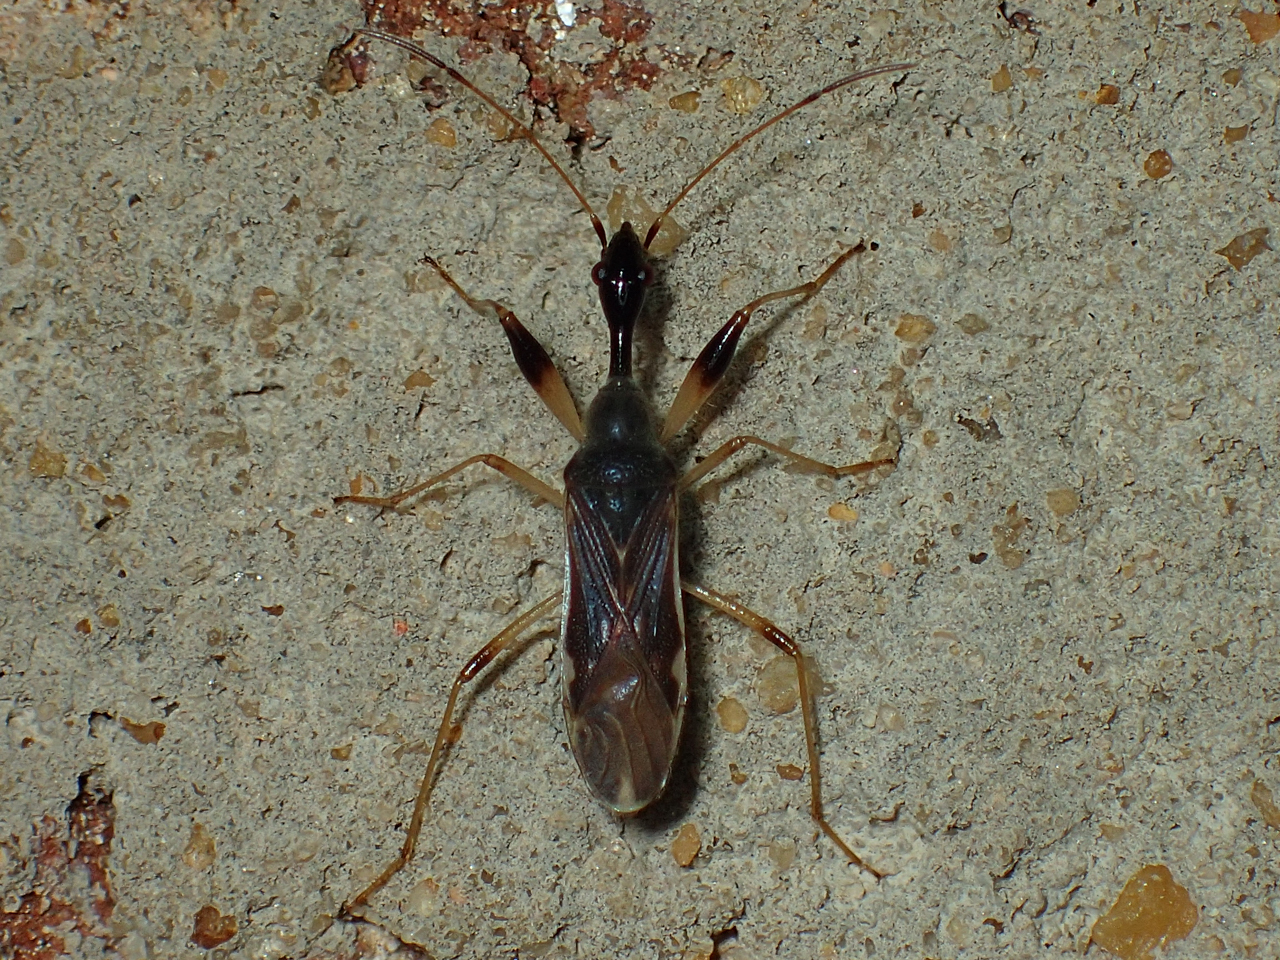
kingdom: Animalia
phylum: Arthropoda
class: Insecta
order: Hemiptera
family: Rhyparochromidae
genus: Myodocha
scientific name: Myodocha serripes
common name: Long-necked seed bug
